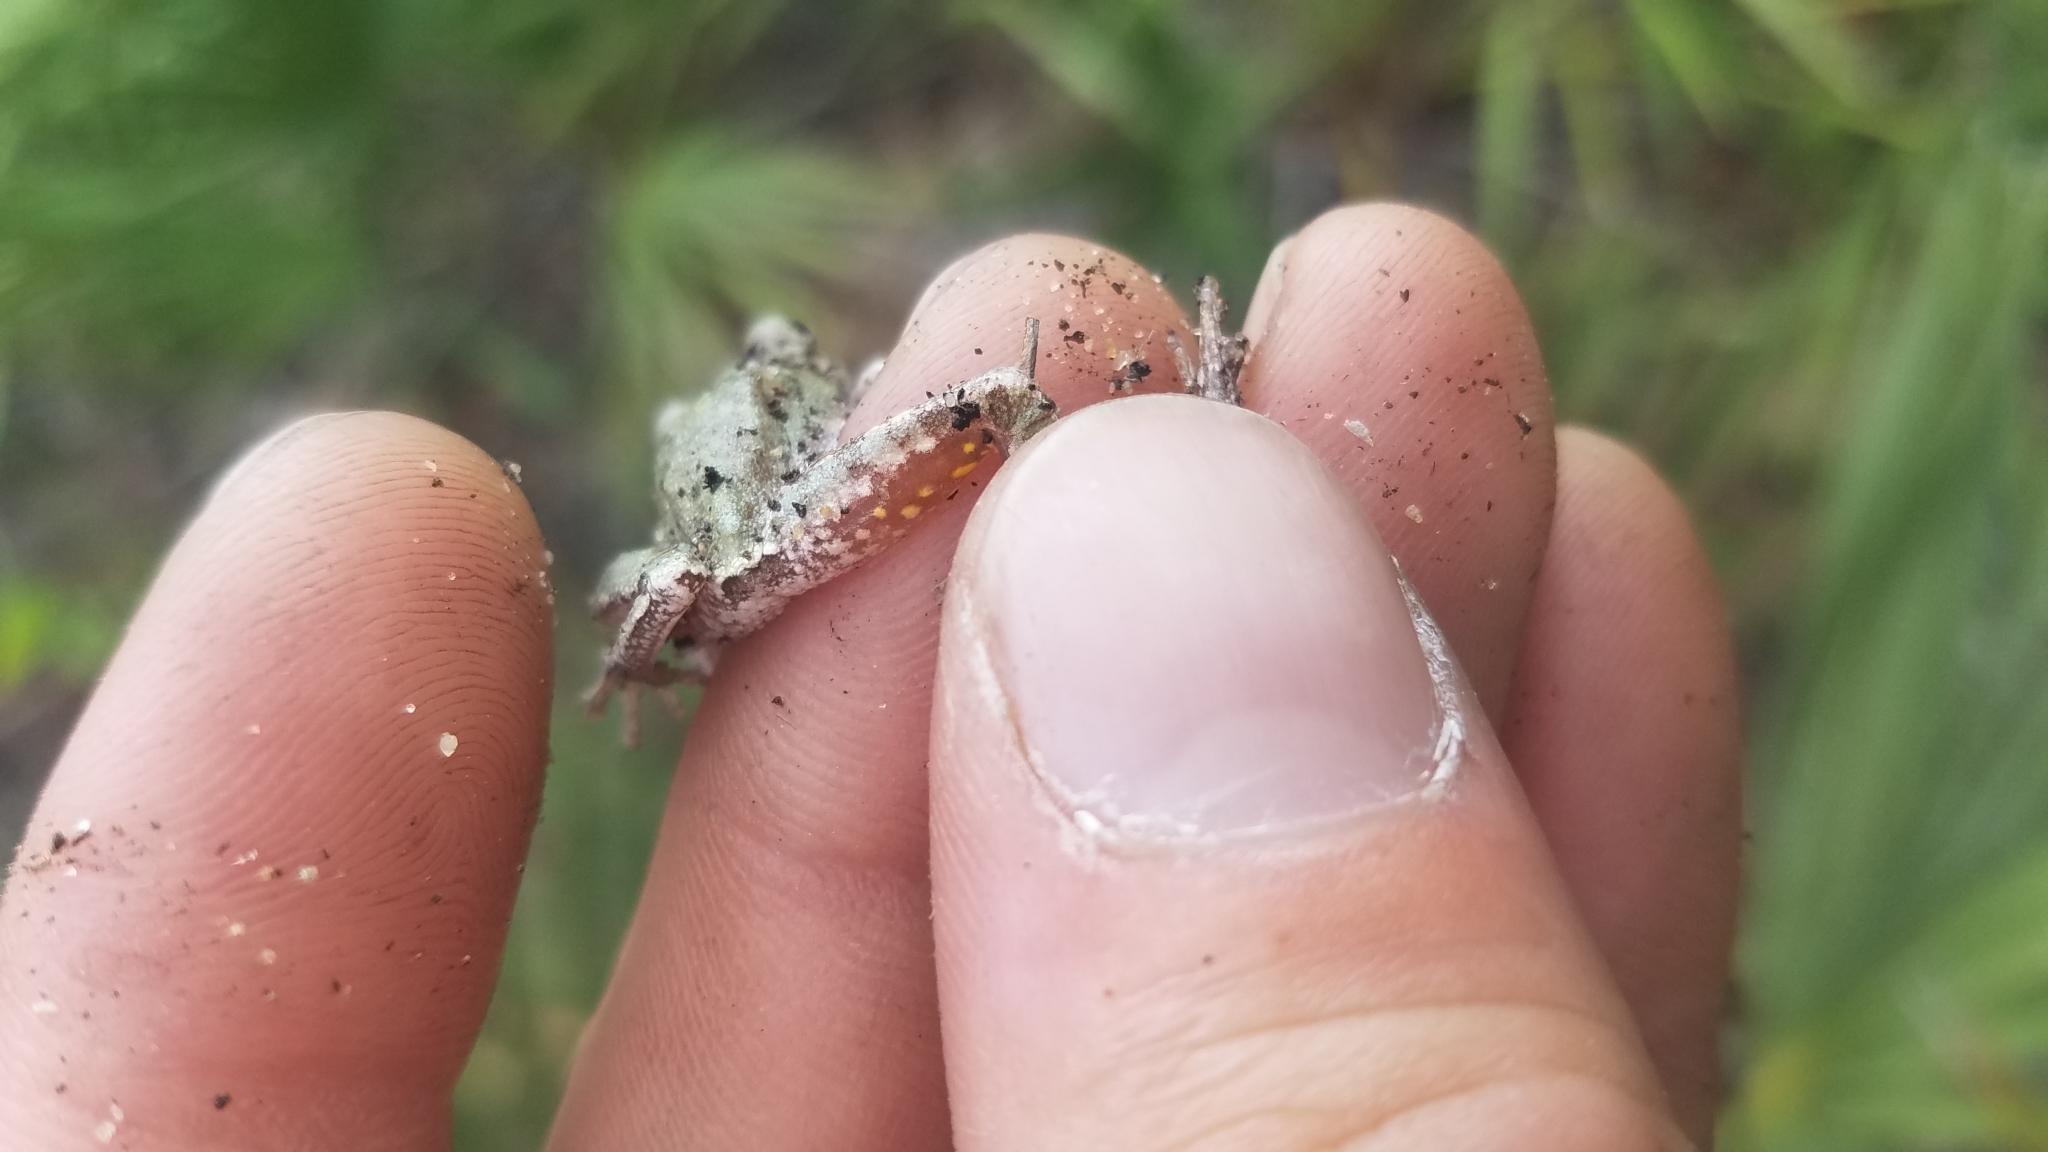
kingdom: Animalia
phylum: Chordata
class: Amphibia
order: Anura
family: Hylidae
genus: Hyla
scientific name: Hyla femoralis
